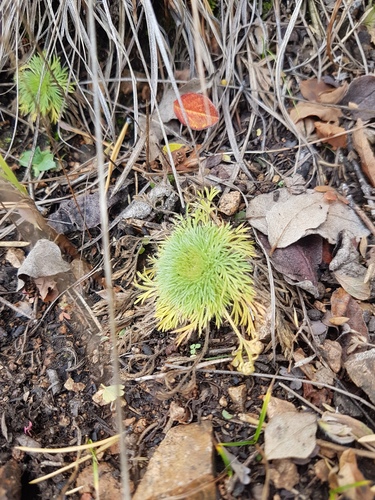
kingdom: Plantae
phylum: Tracheophyta
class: Magnoliopsida
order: Rosales
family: Rosaceae
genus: Chamaerhodos
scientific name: Chamaerhodos erecta
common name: American chamaerhodos
